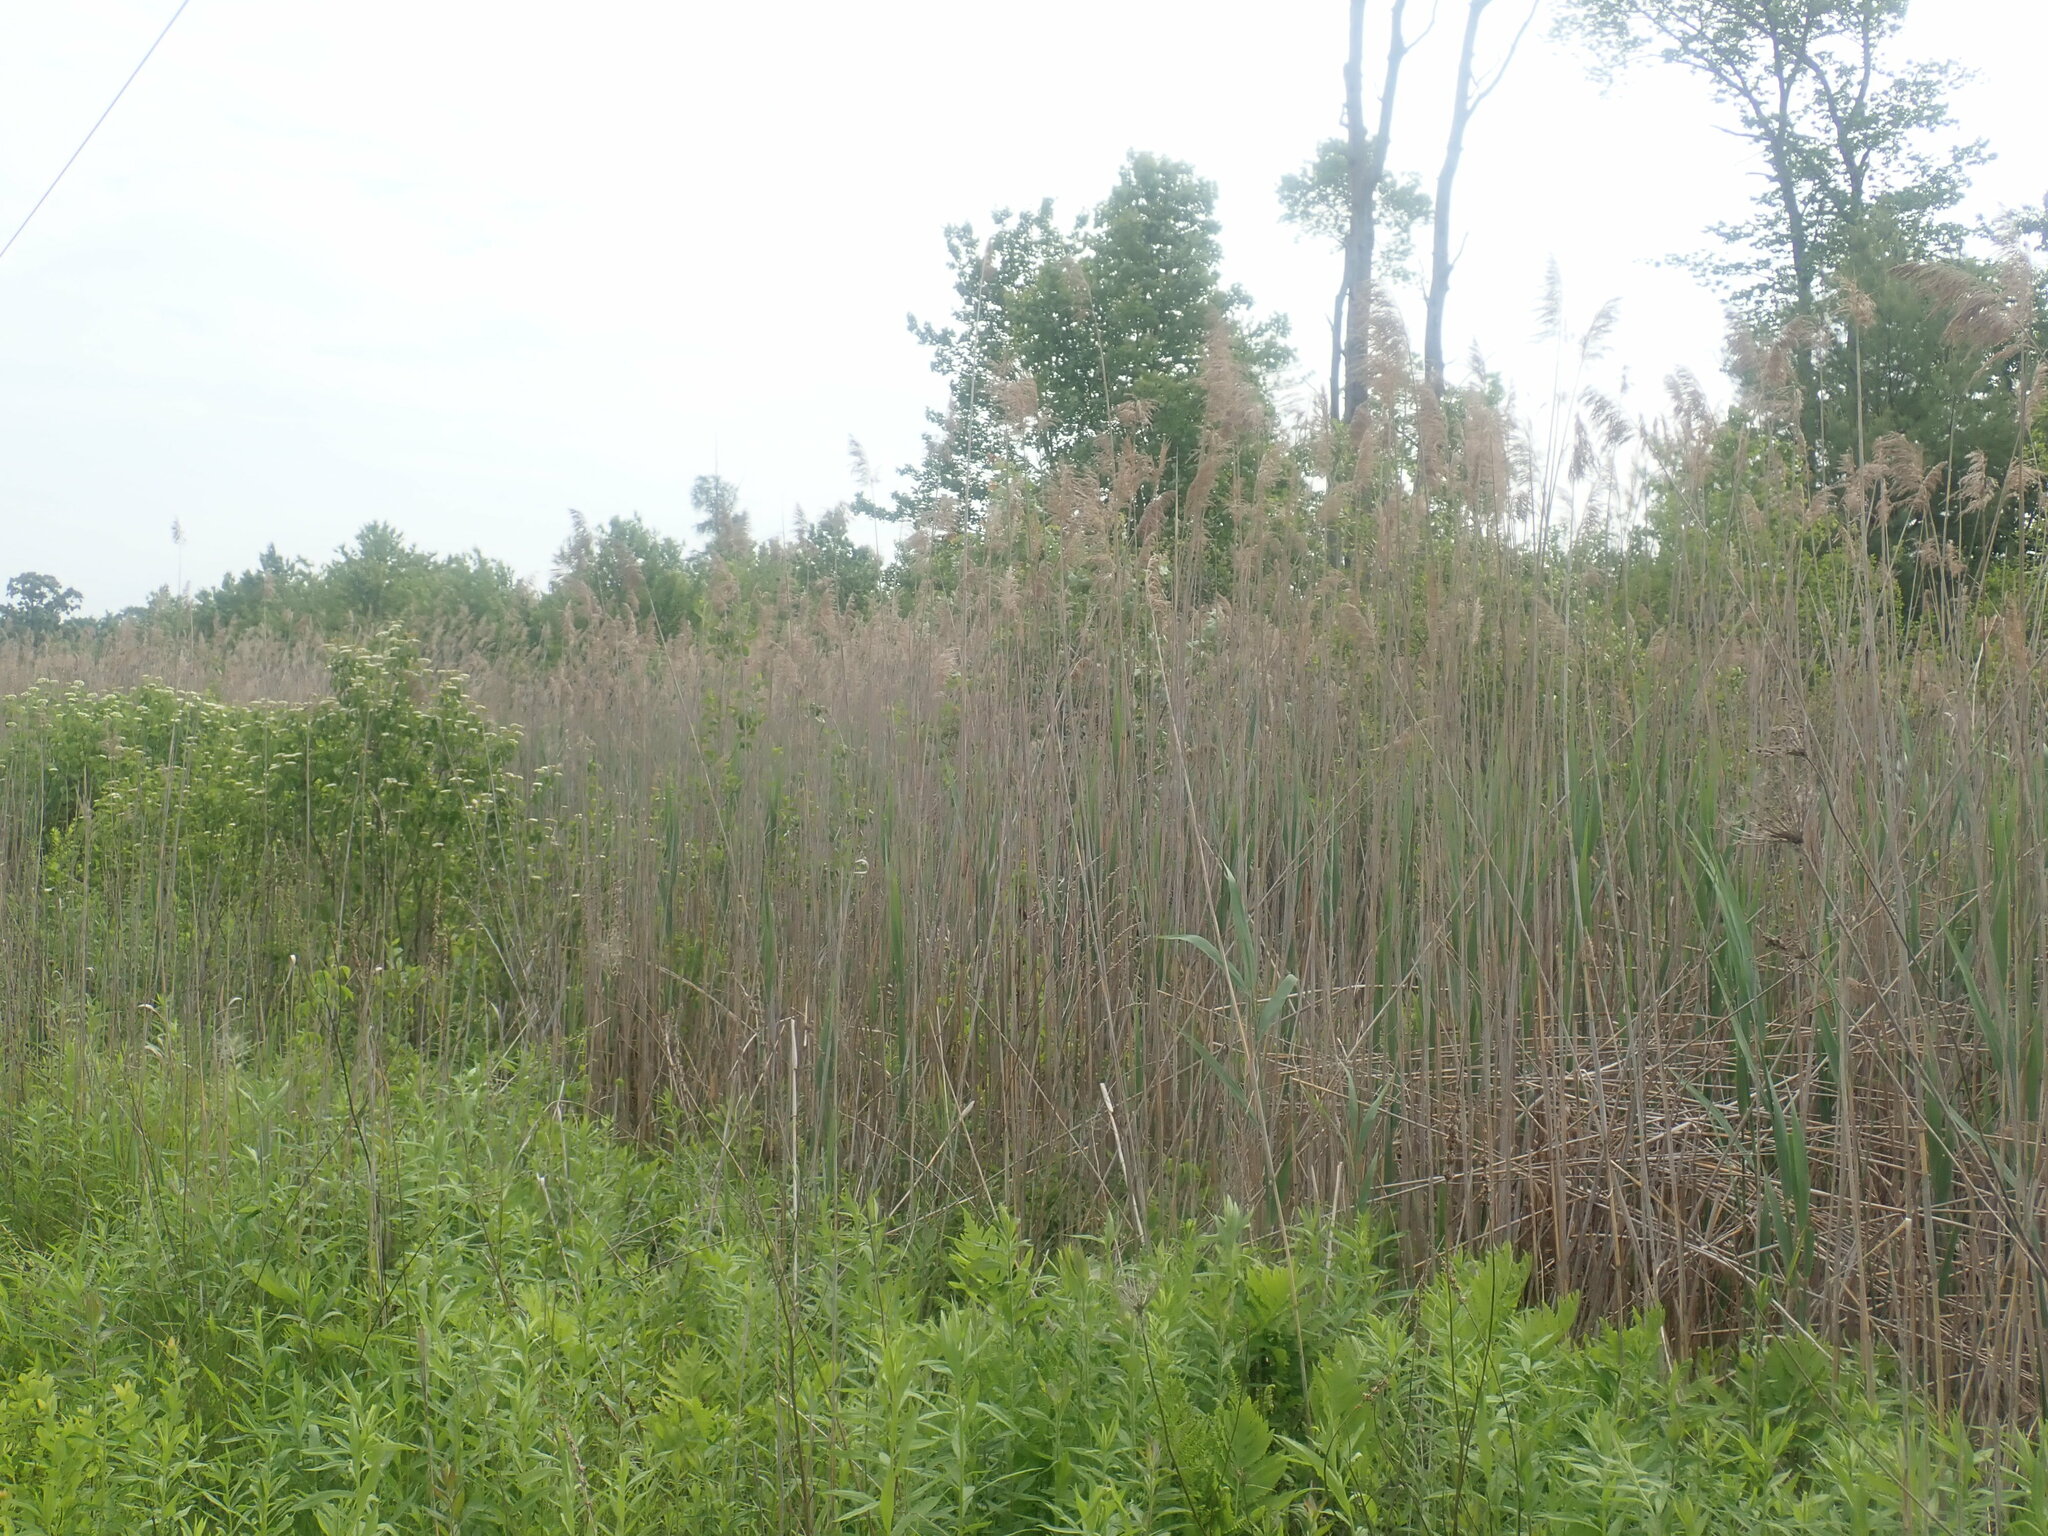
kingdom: Plantae
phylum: Tracheophyta
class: Liliopsida
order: Poales
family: Poaceae
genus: Phragmites
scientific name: Phragmites australis
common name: Common reed
